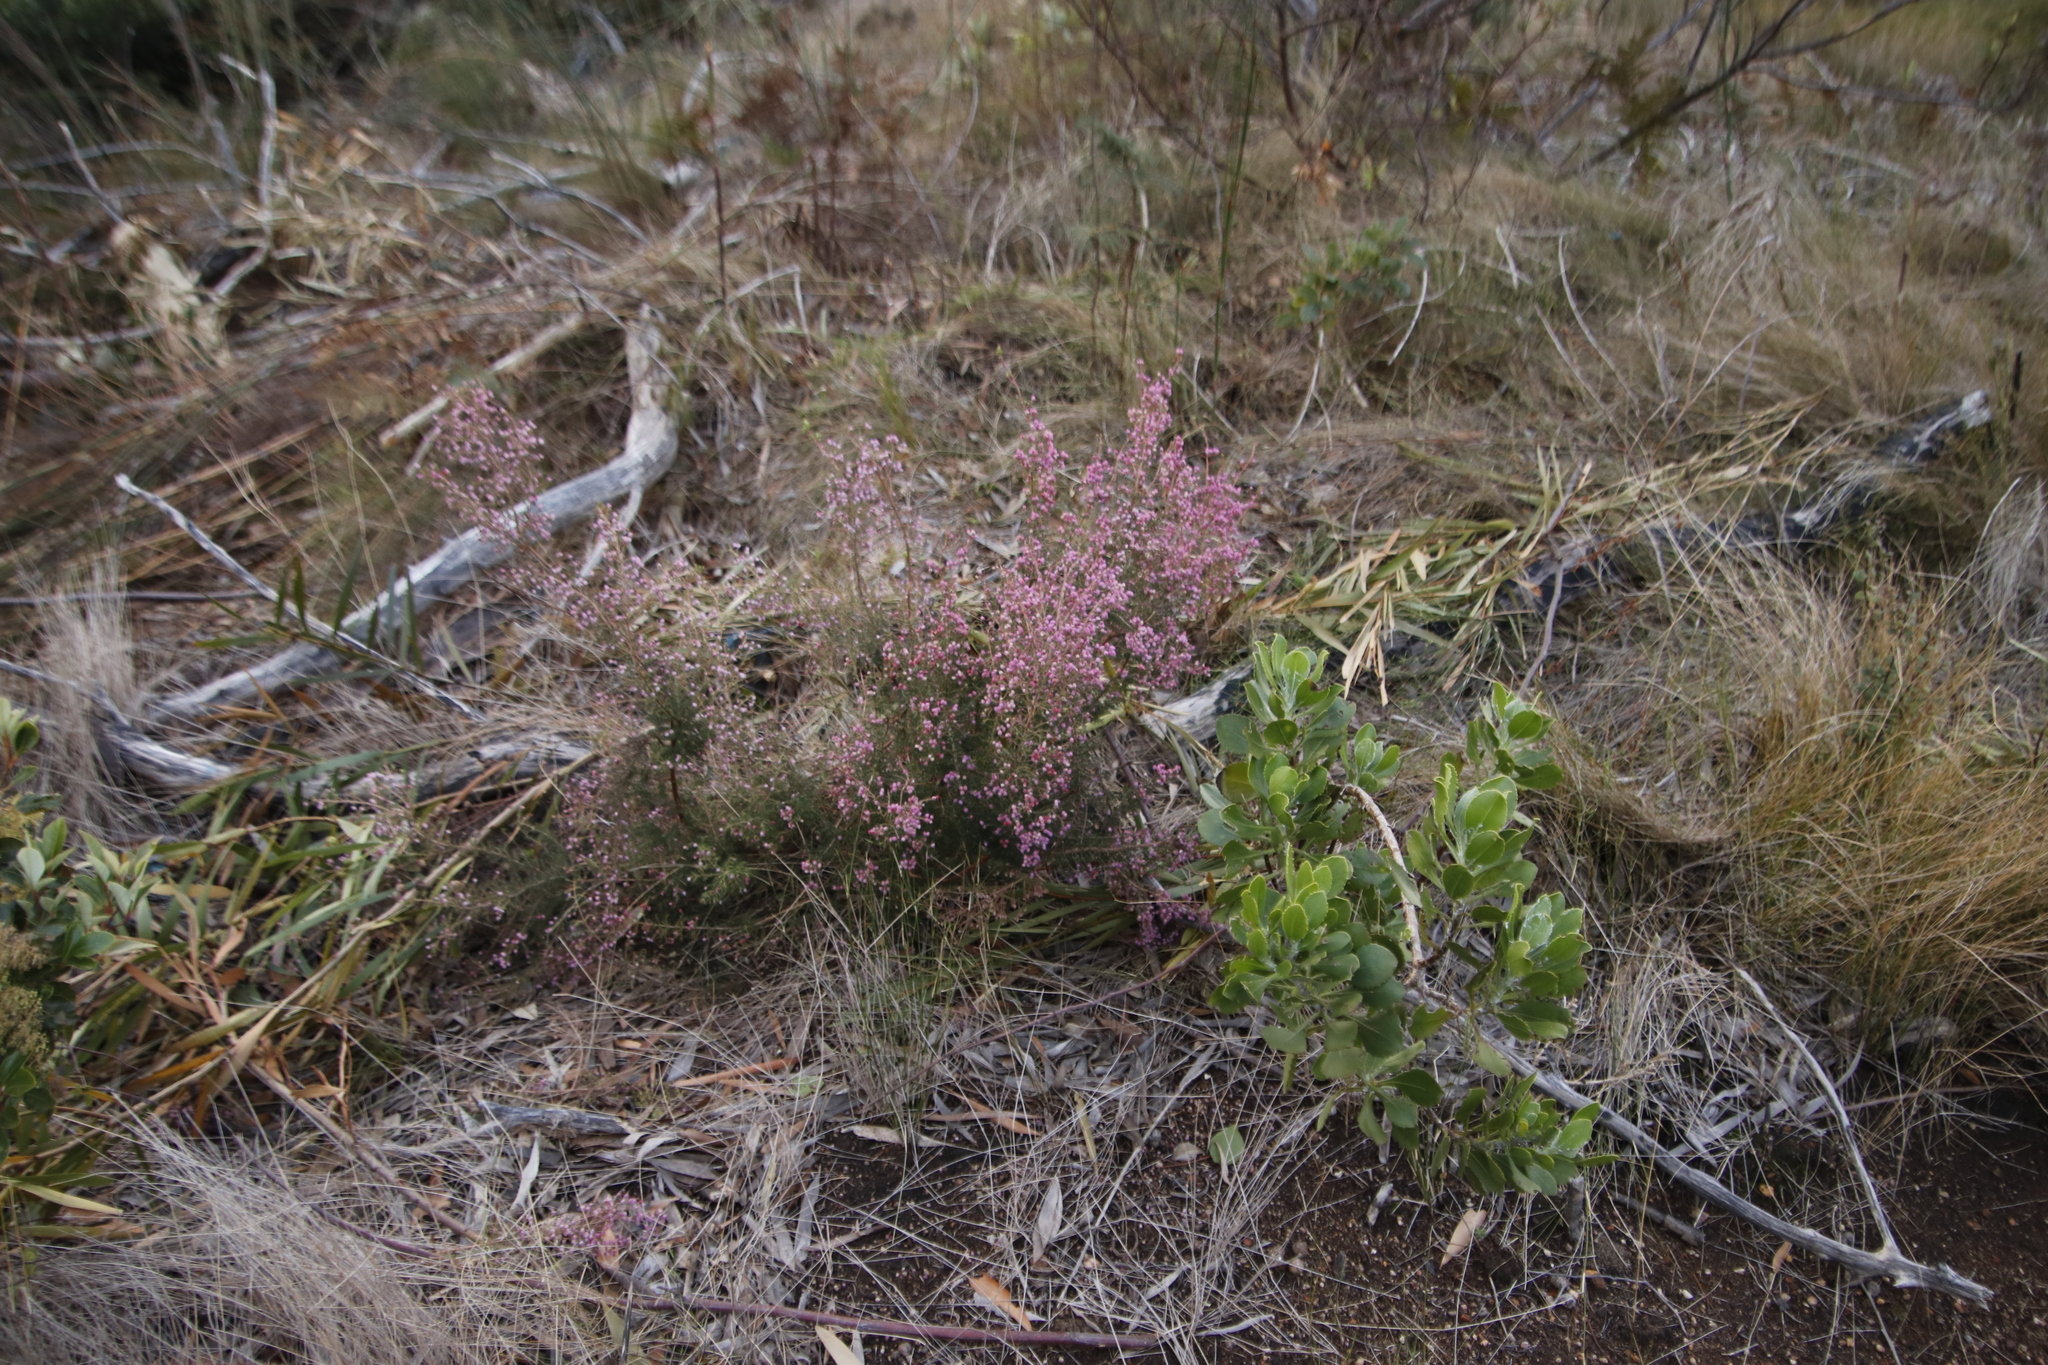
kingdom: Plantae
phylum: Tracheophyta
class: Magnoliopsida
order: Ericales
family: Ericaceae
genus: Erica
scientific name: Erica hirtiflora
